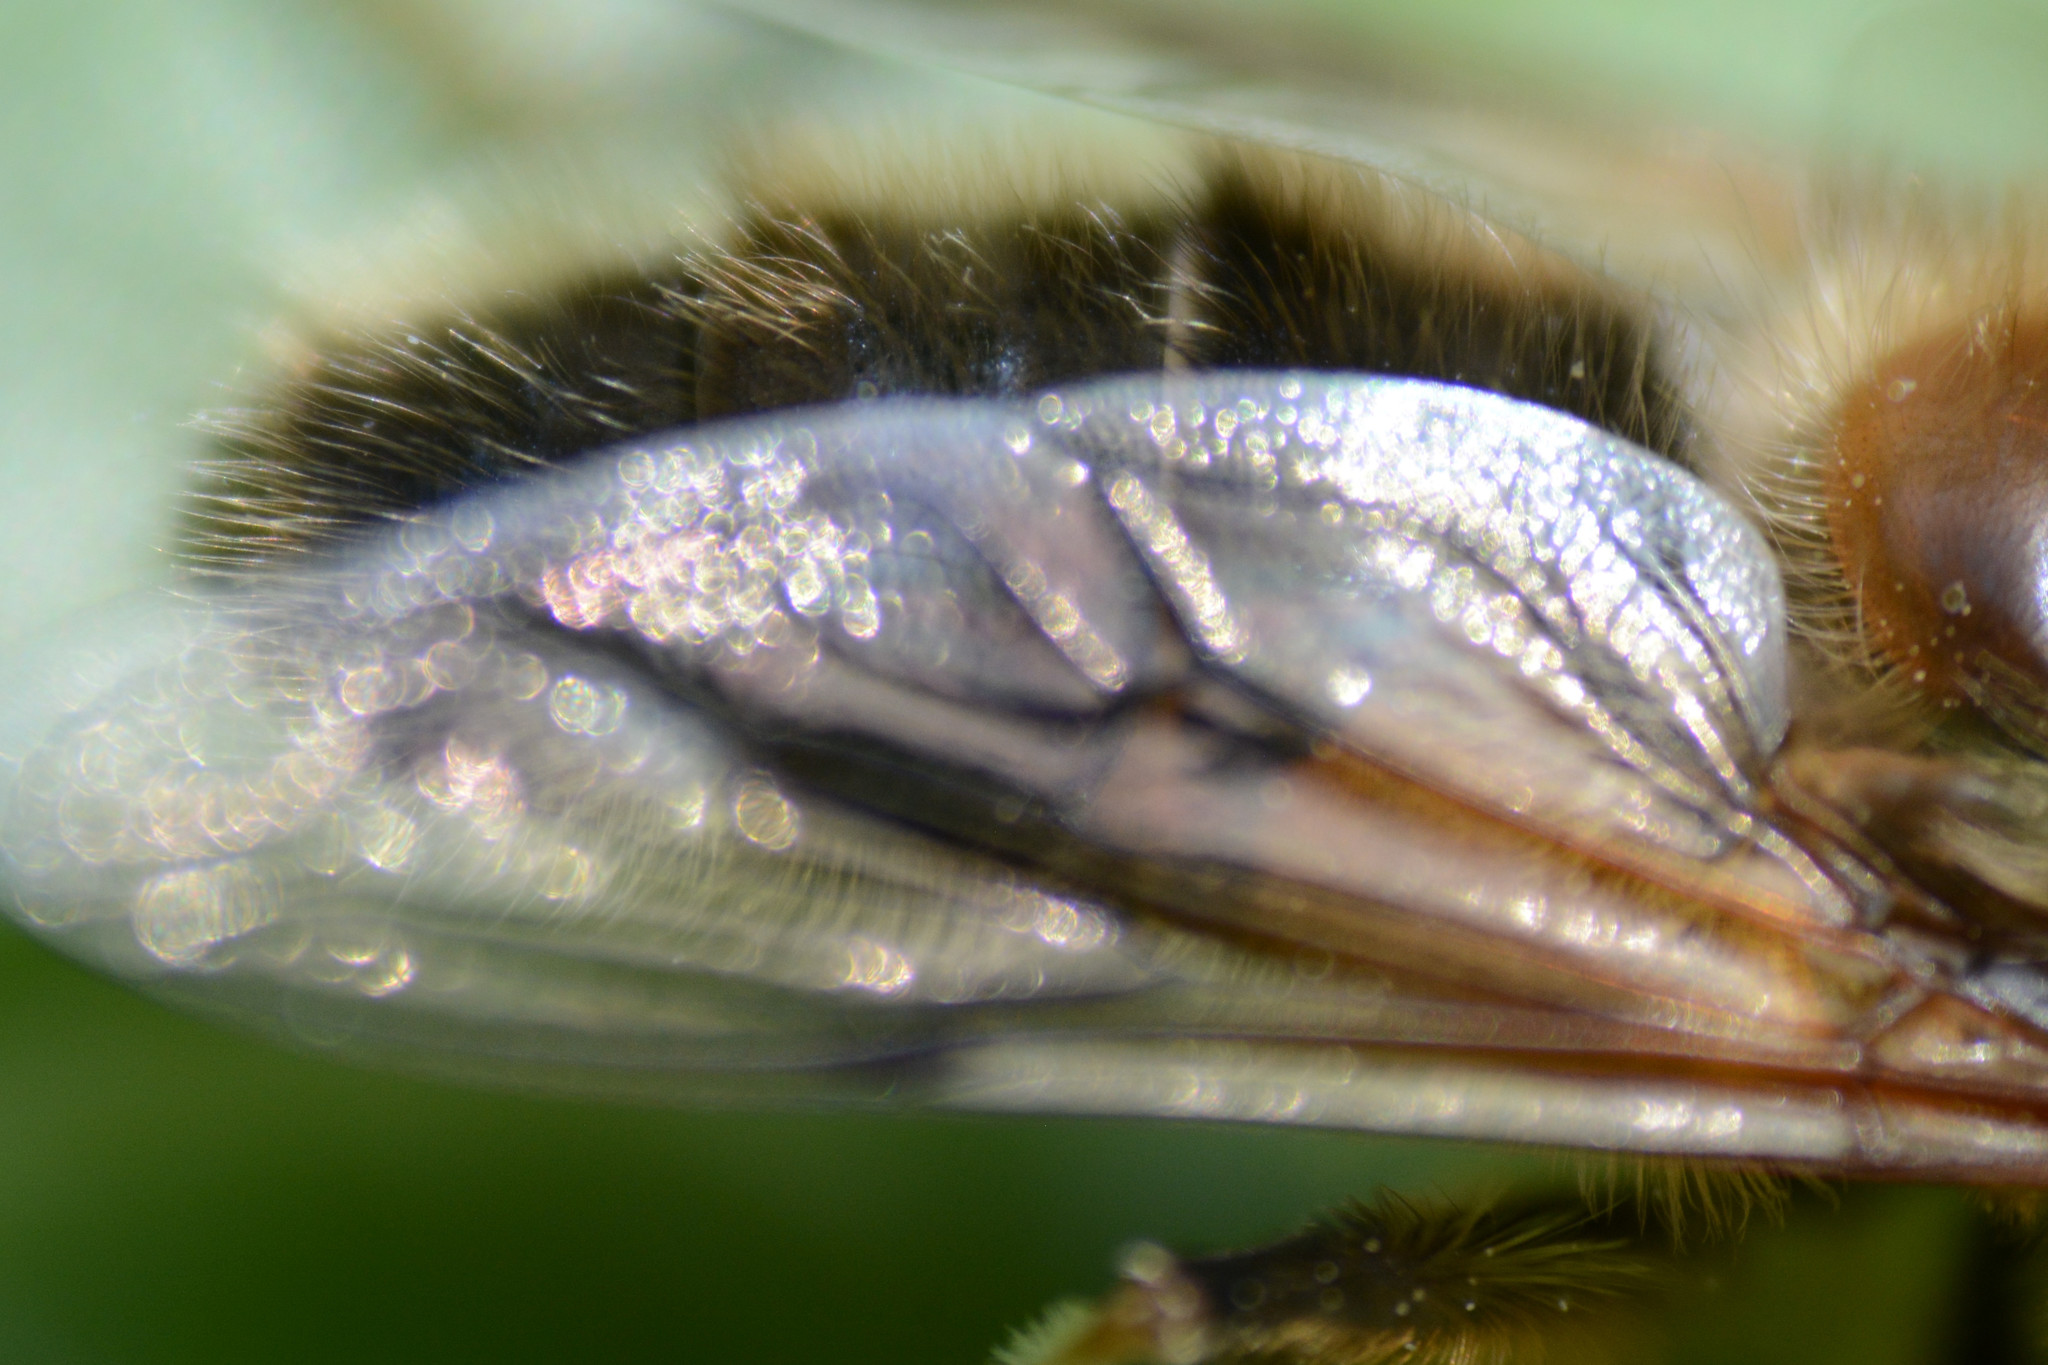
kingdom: Animalia
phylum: Arthropoda
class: Insecta
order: Diptera
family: Syrphidae
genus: Eristalis
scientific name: Eristalis pertinax
